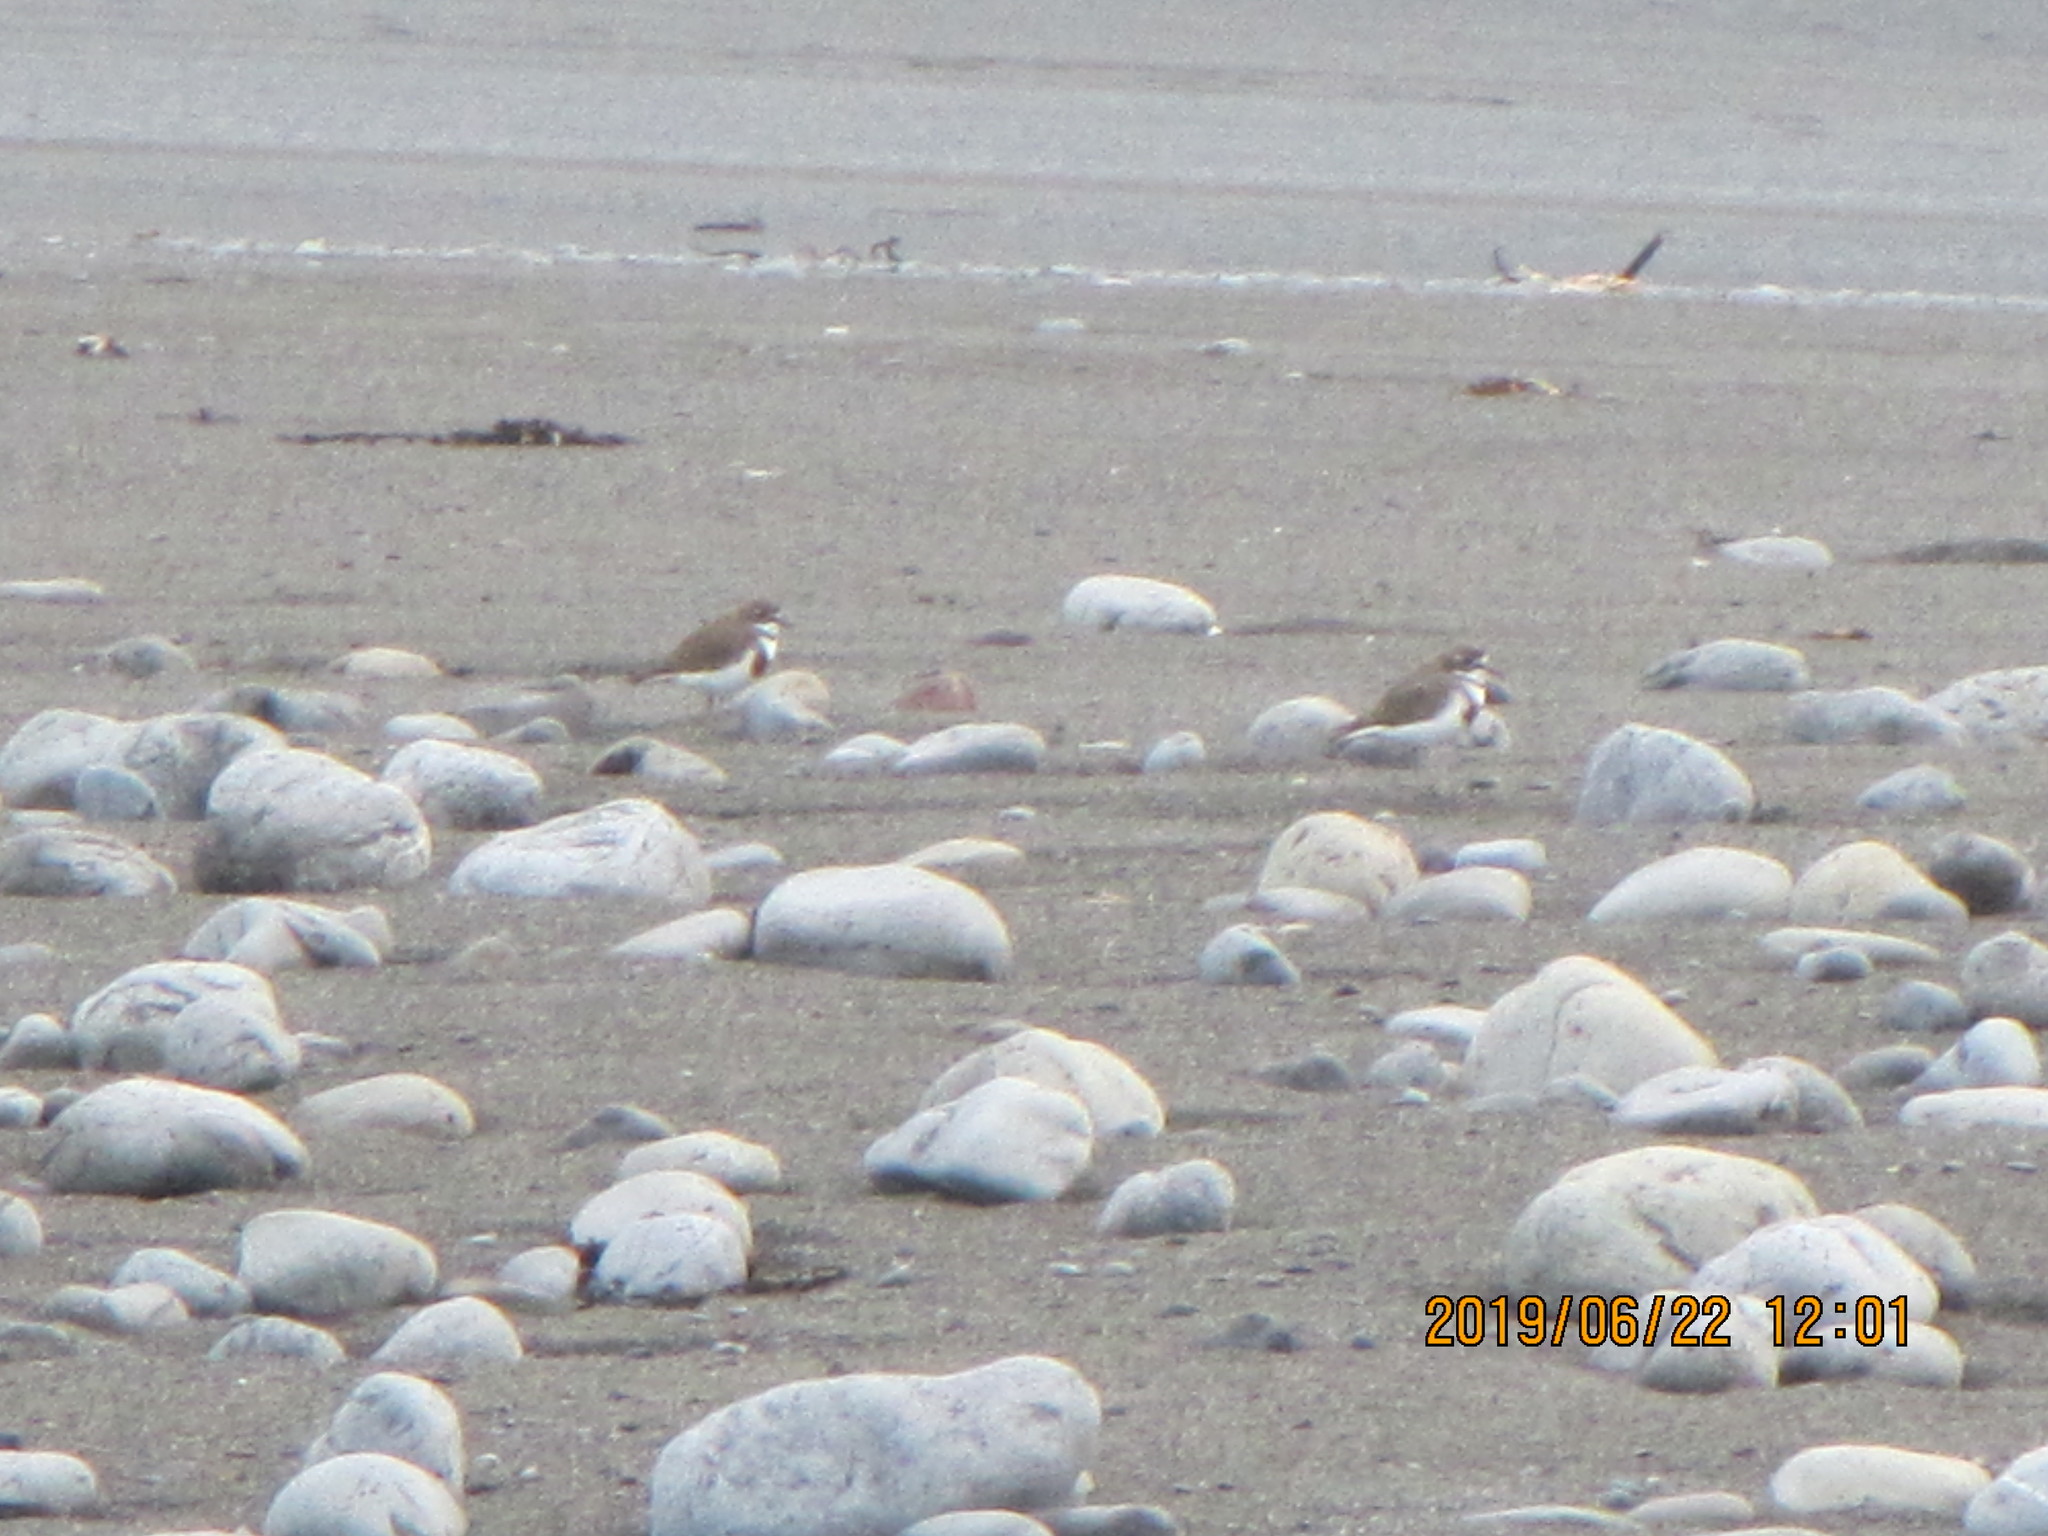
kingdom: Animalia
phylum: Chordata
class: Aves
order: Charadriiformes
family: Charadriidae
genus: Anarhynchus
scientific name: Anarhynchus
